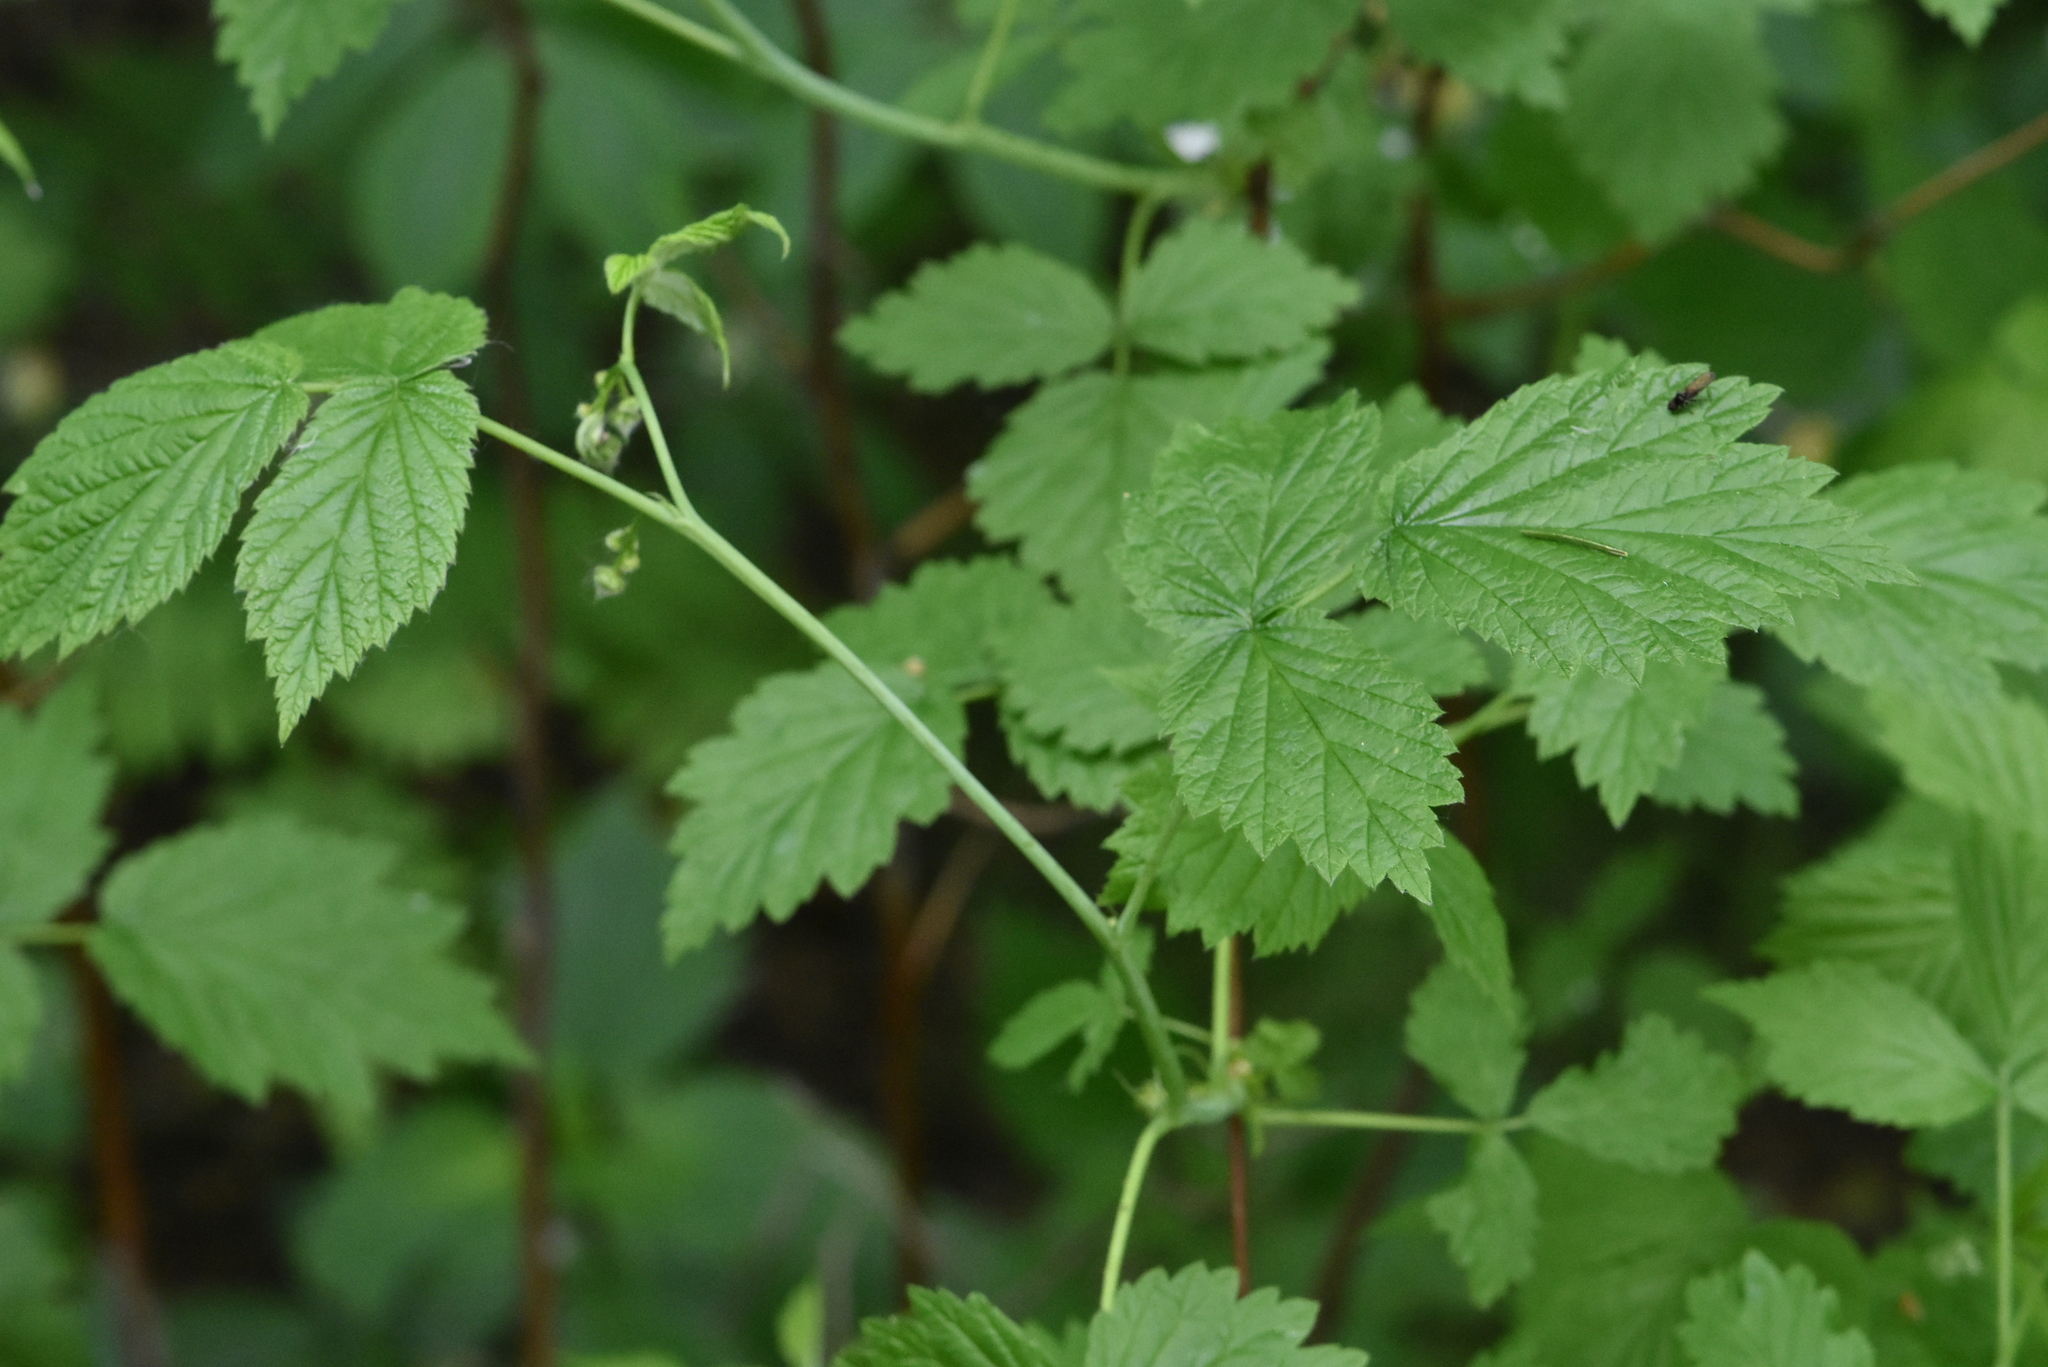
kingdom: Plantae
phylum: Tracheophyta
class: Magnoliopsida
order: Rosales
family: Rosaceae
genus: Rubus
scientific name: Rubus idaeus
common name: Raspberry
